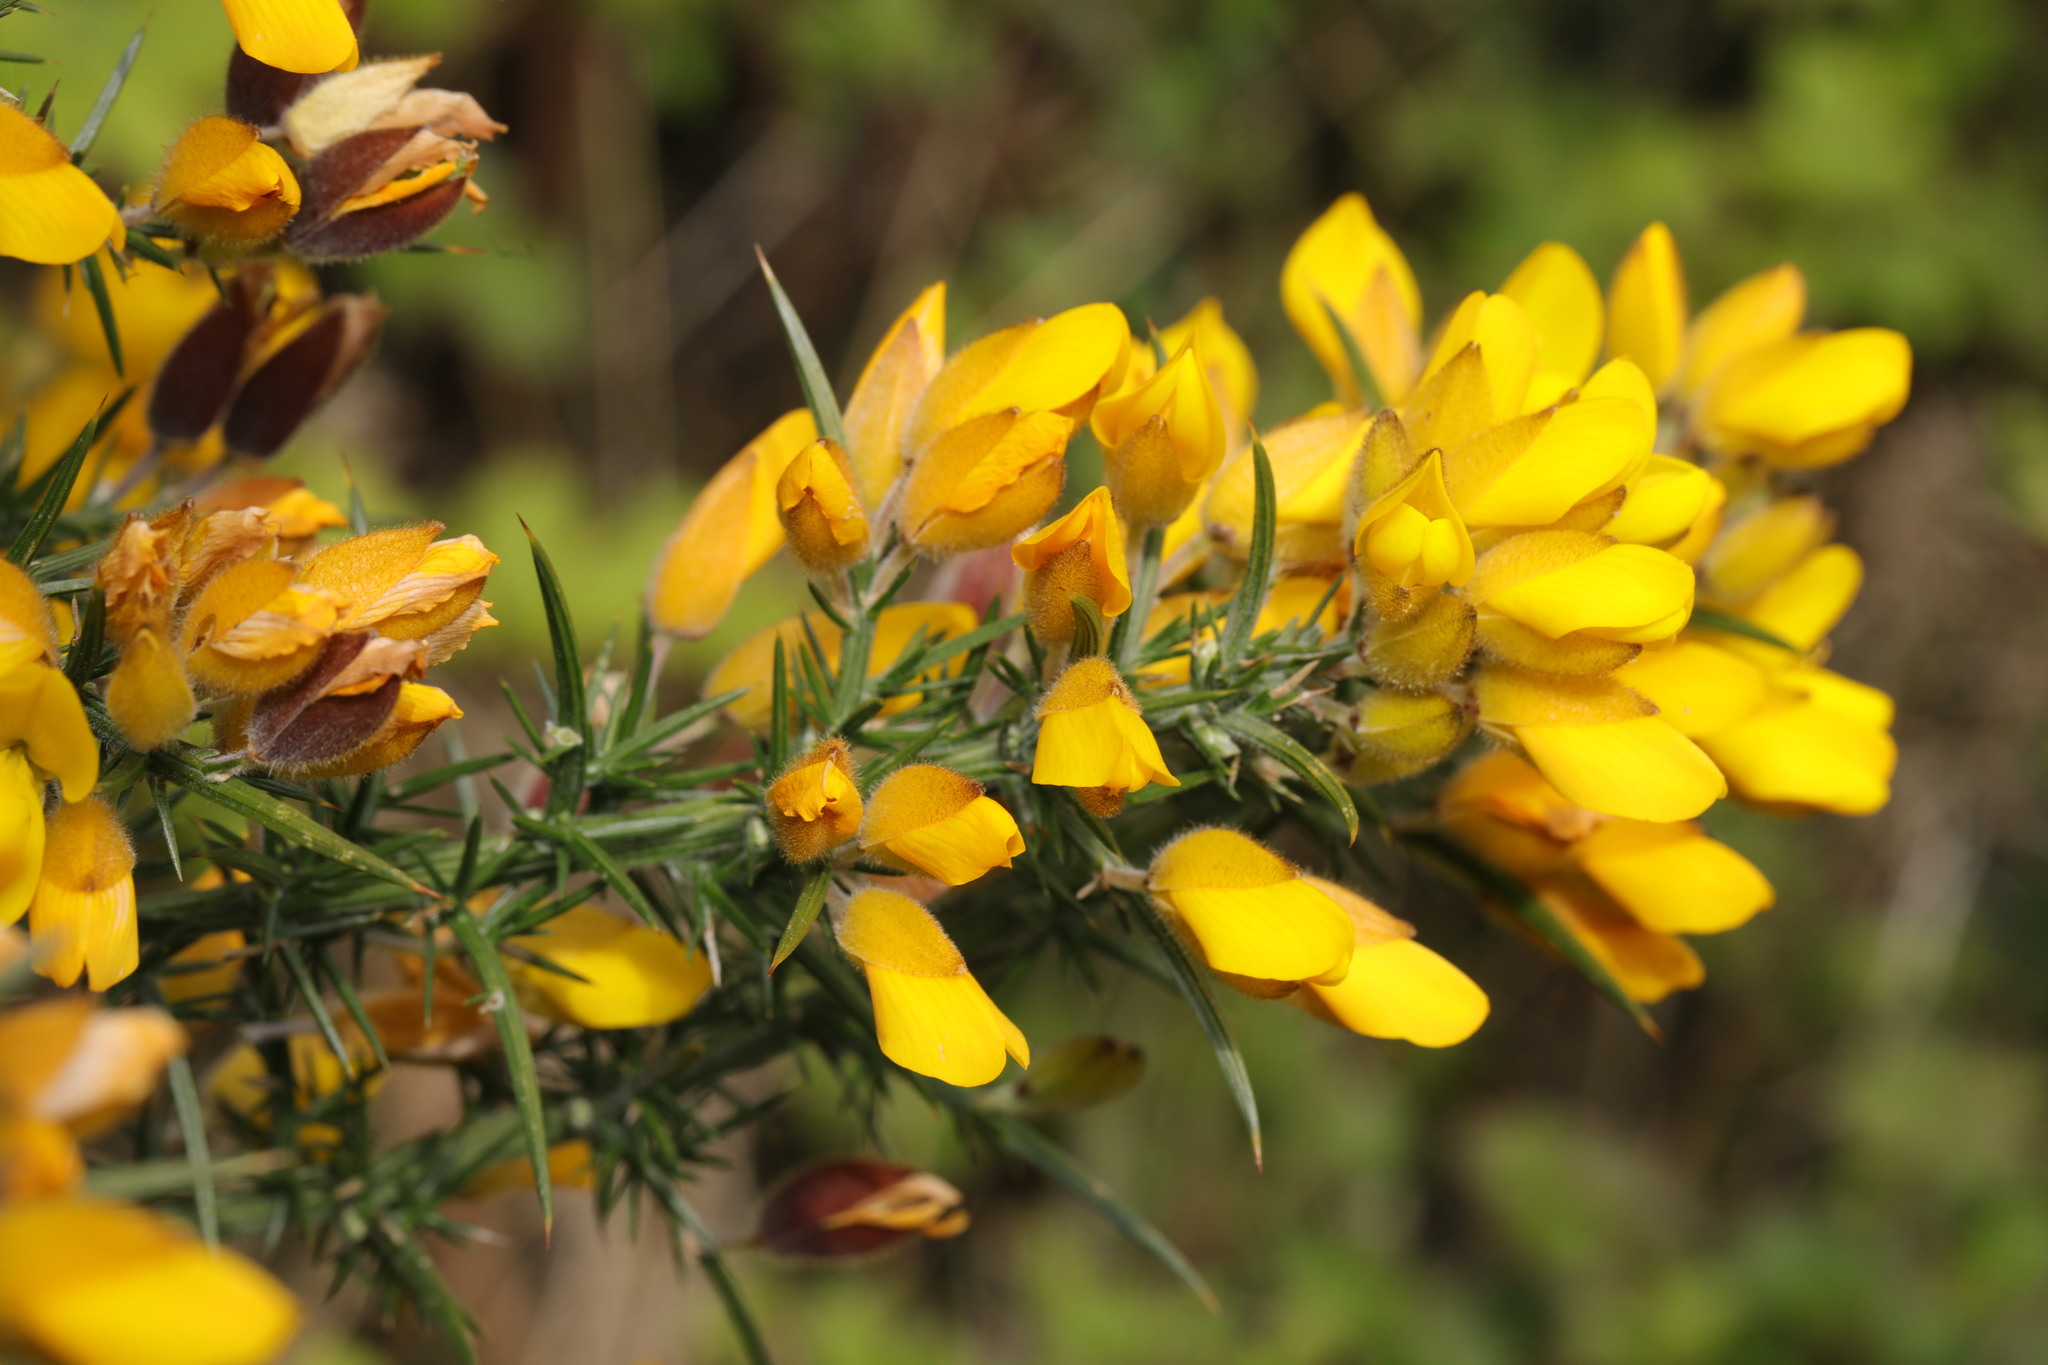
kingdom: Plantae
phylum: Tracheophyta
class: Magnoliopsida
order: Fabales
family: Fabaceae
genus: Ulex
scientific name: Ulex europaeus
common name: Common gorse
